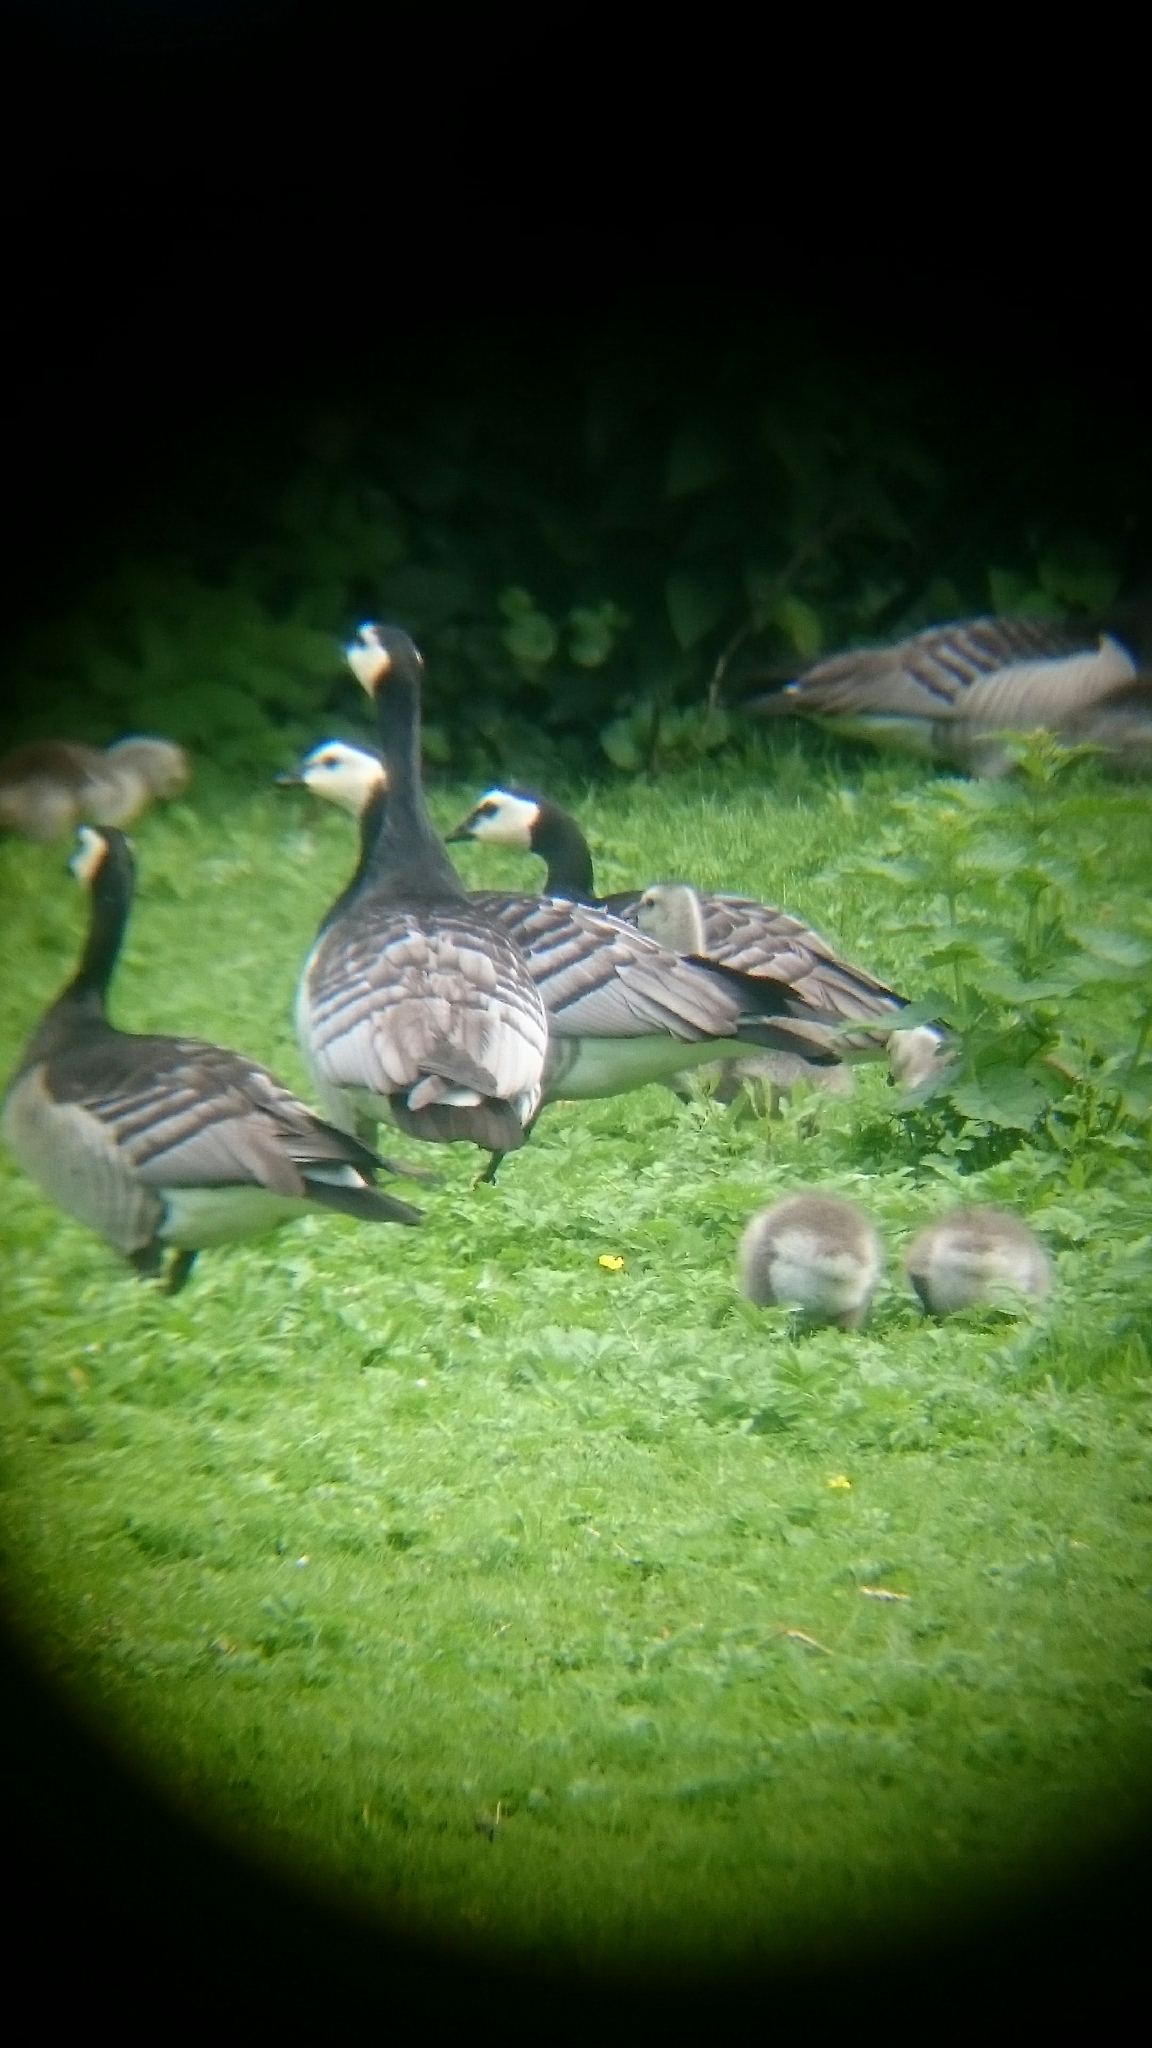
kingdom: Animalia
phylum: Chordata
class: Aves
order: Anseriformes
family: Anatidae
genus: Branta
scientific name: Branta leucopsis
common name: Barnacle goose
